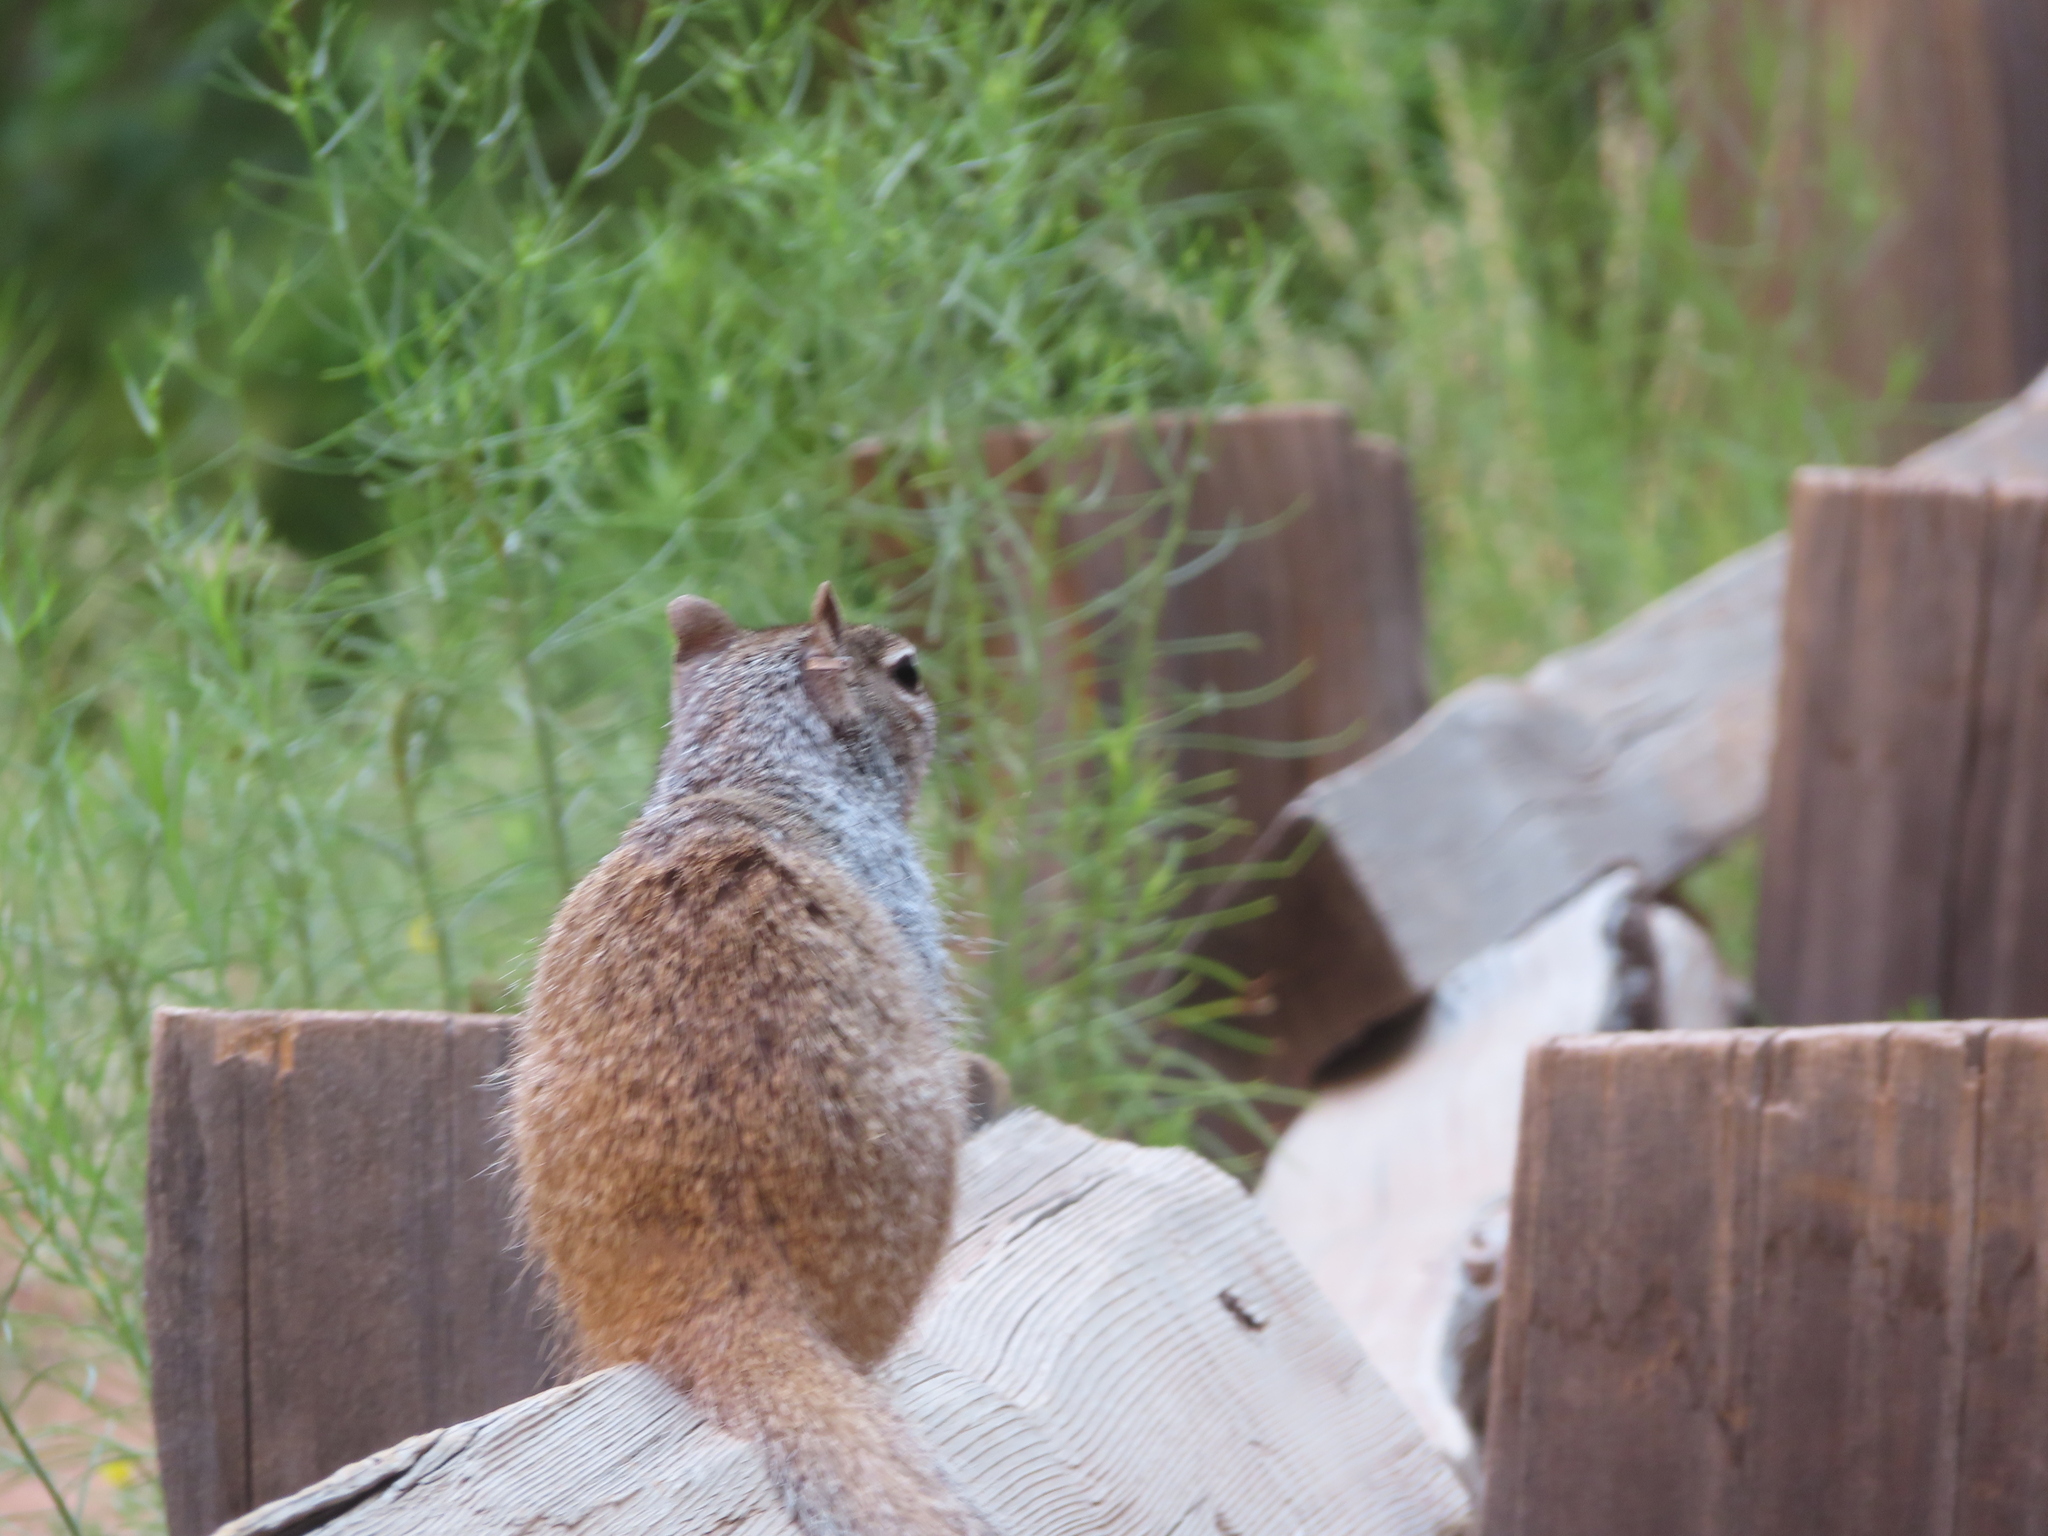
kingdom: Animalia
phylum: Chordata
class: Mammalia
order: Rodentia
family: Sciuridae
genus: Otospermophilus
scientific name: Otospermophilus variegatus
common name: Rock squirrel
